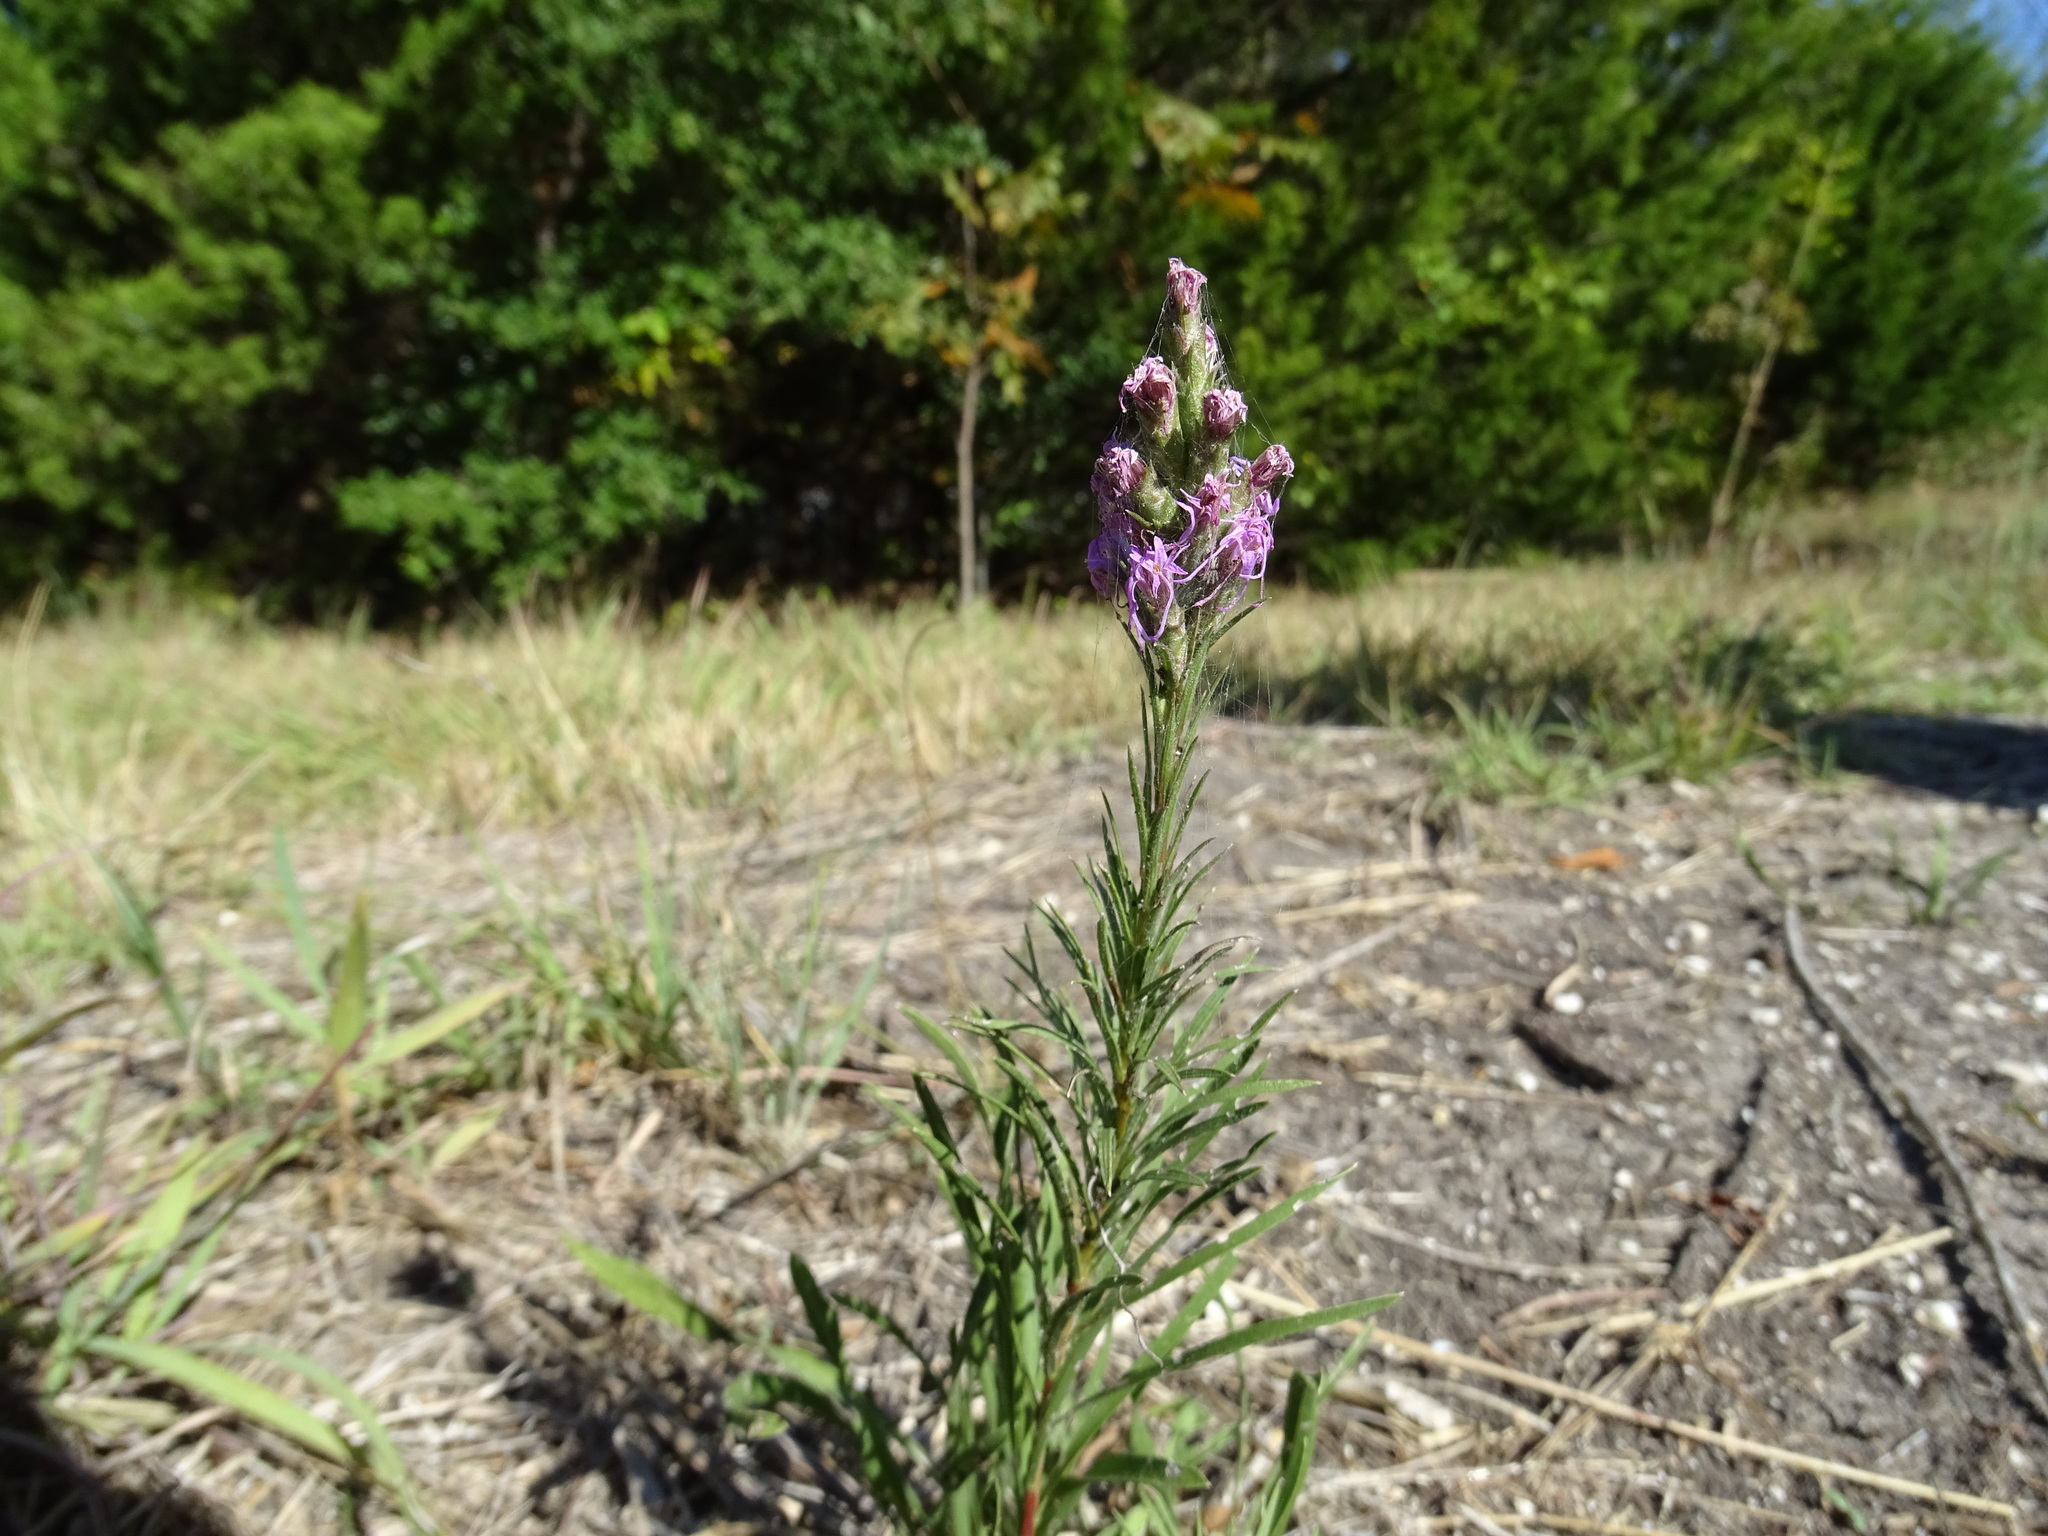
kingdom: Plantae
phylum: Tracheophyta
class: Magnoliopsida
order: Asterales
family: Asteraceae
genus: Liatris
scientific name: Liatris punctata
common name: Dotted gayfeather
